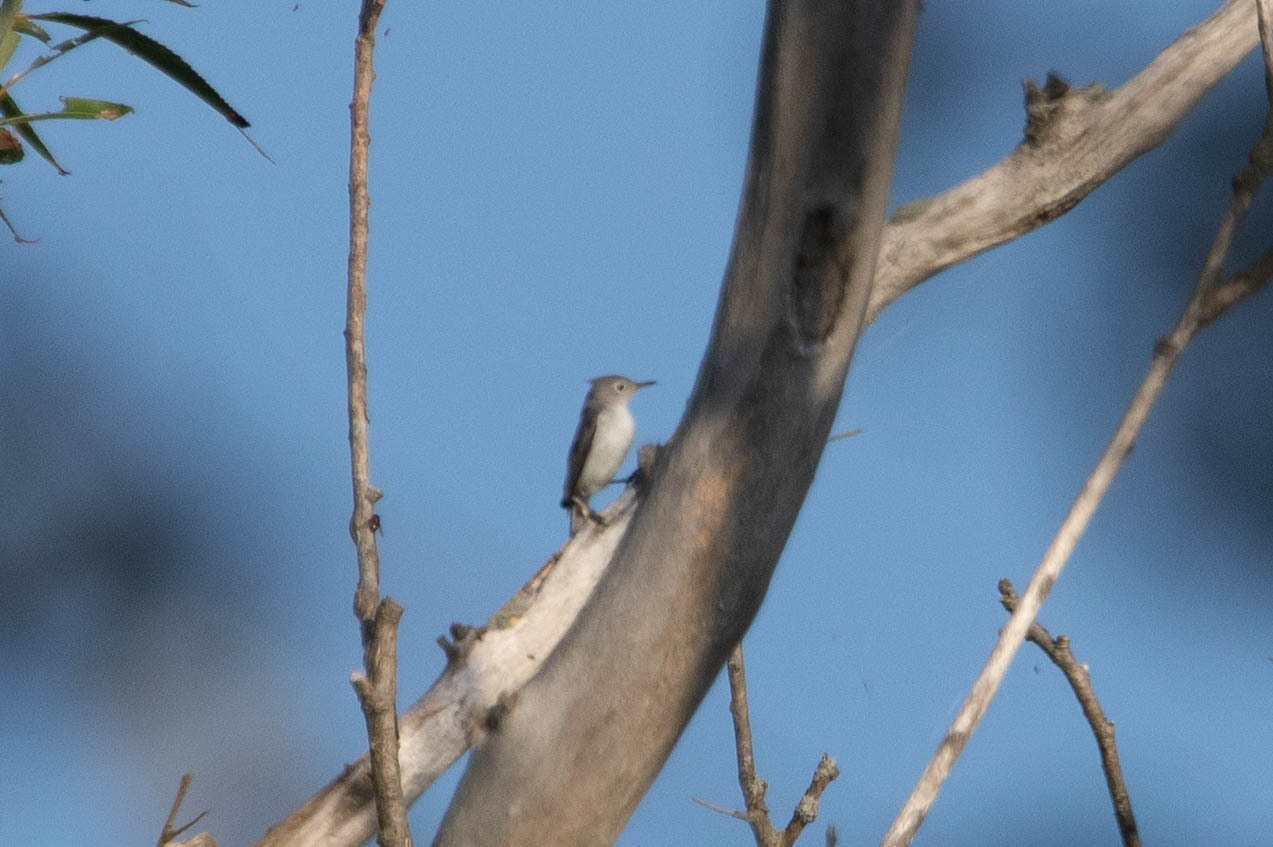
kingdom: Animalia
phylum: Chordata
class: Aves
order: Passeriformes
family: Polioptilidae
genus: Polioptila
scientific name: Polioptila caerulea
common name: Blue-gray gnatcatcher
